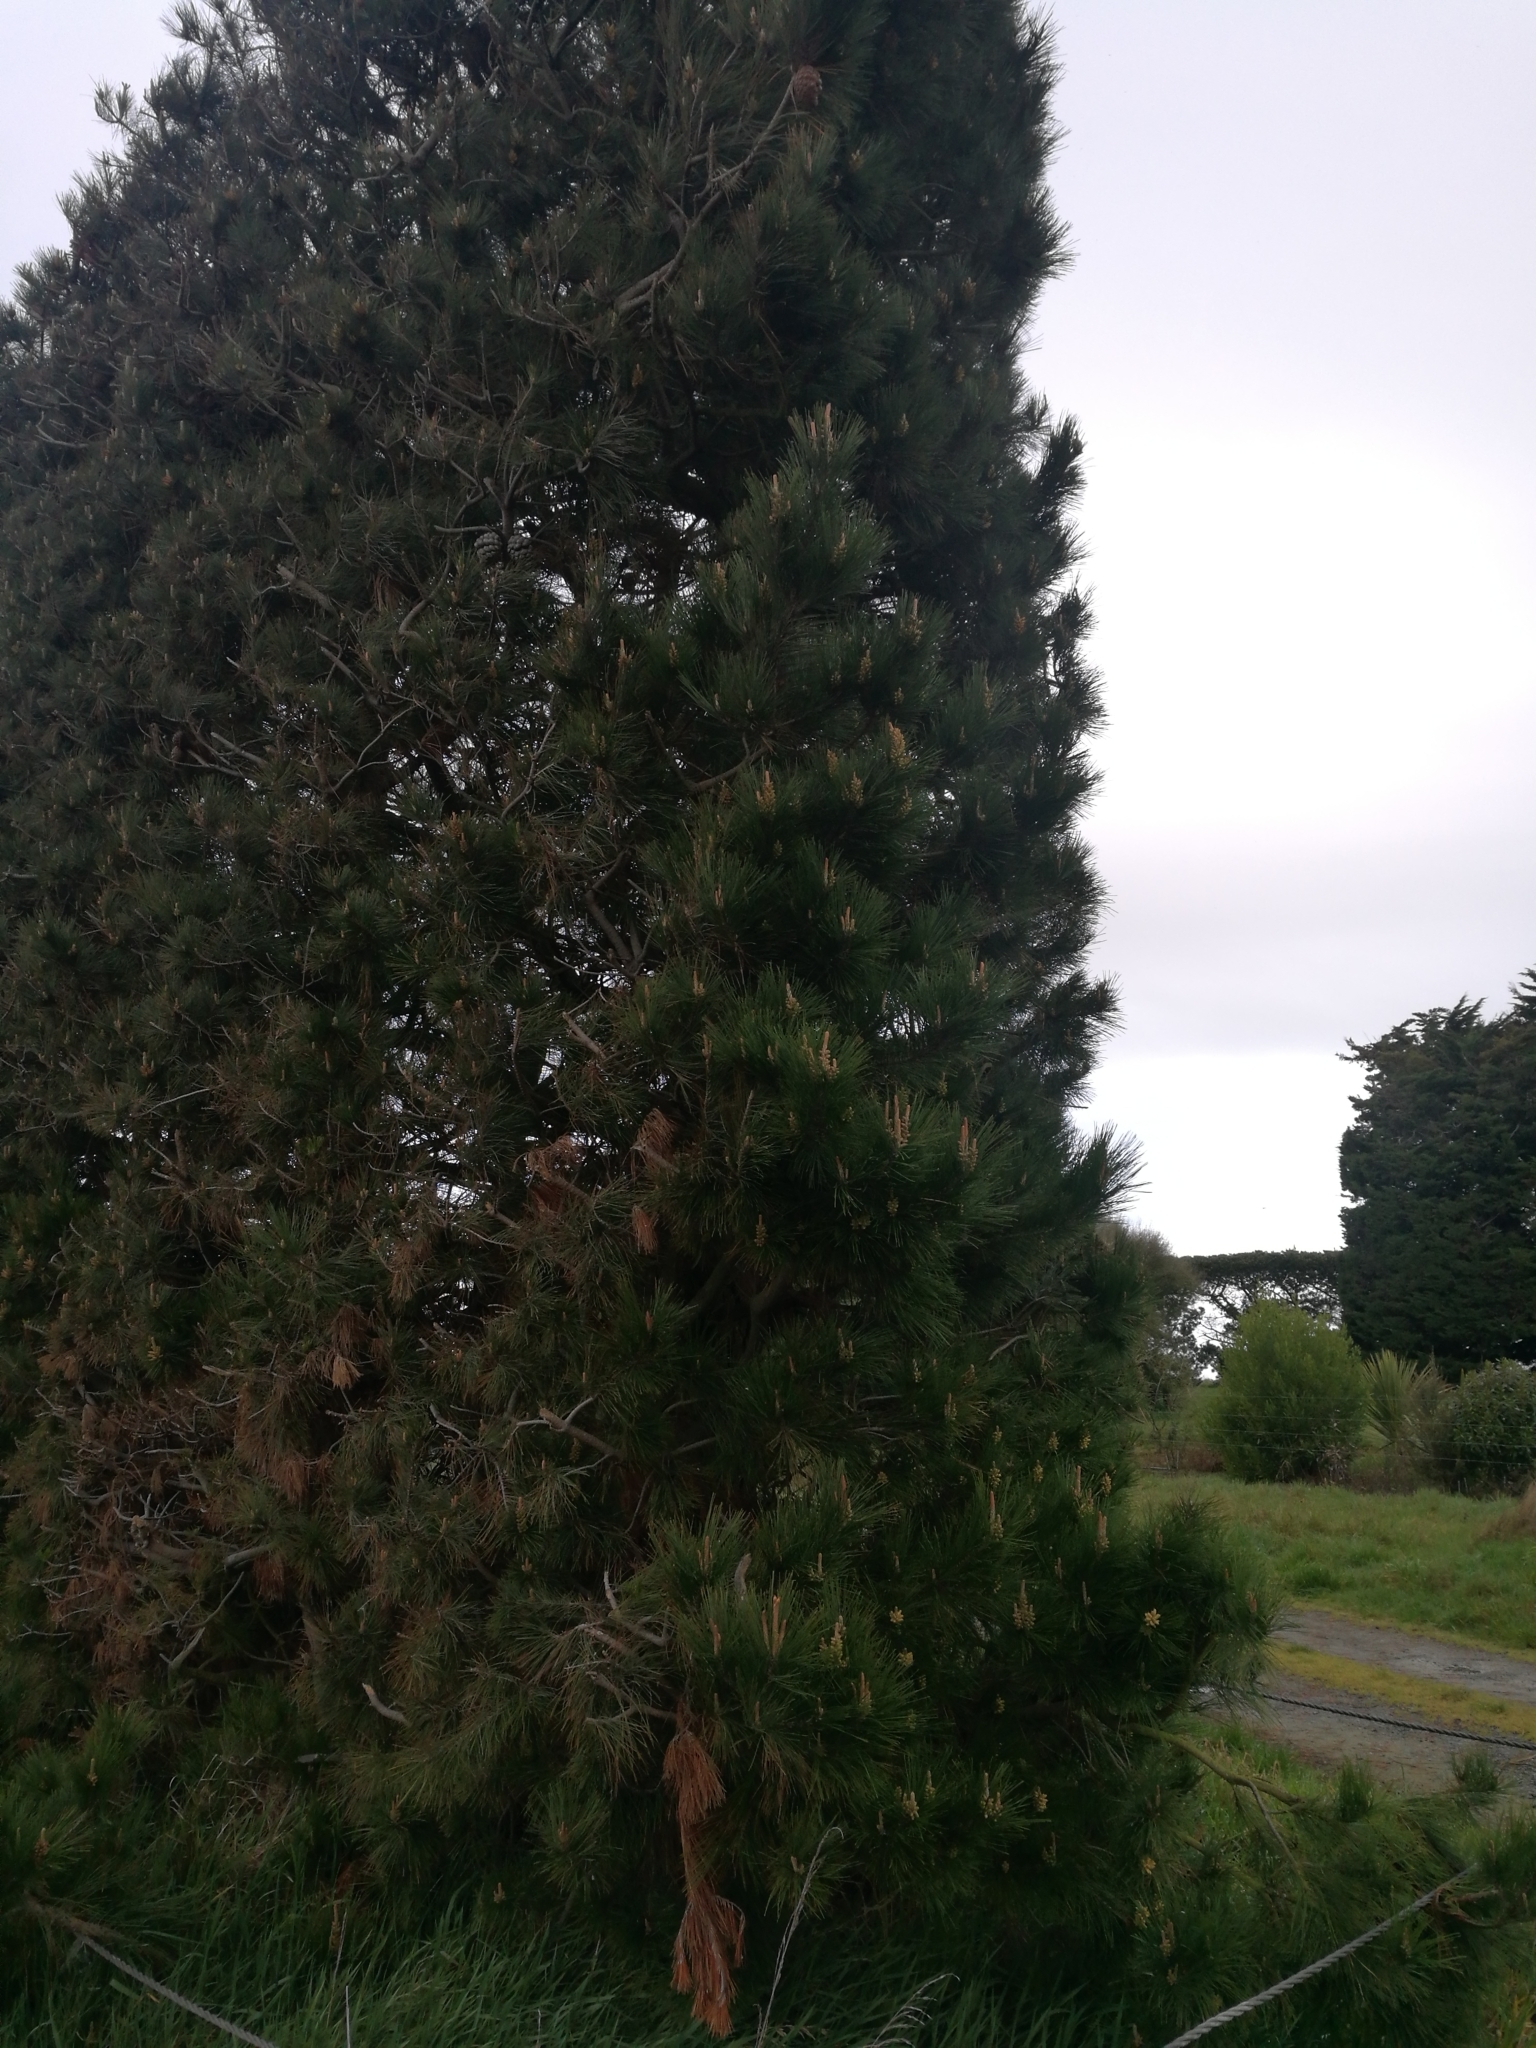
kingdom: Plantae
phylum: Tracheophyta
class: Pinopsida
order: Pinales
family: Pinaceae
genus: Pinus
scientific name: Pinus radiata
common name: Monterey pine
